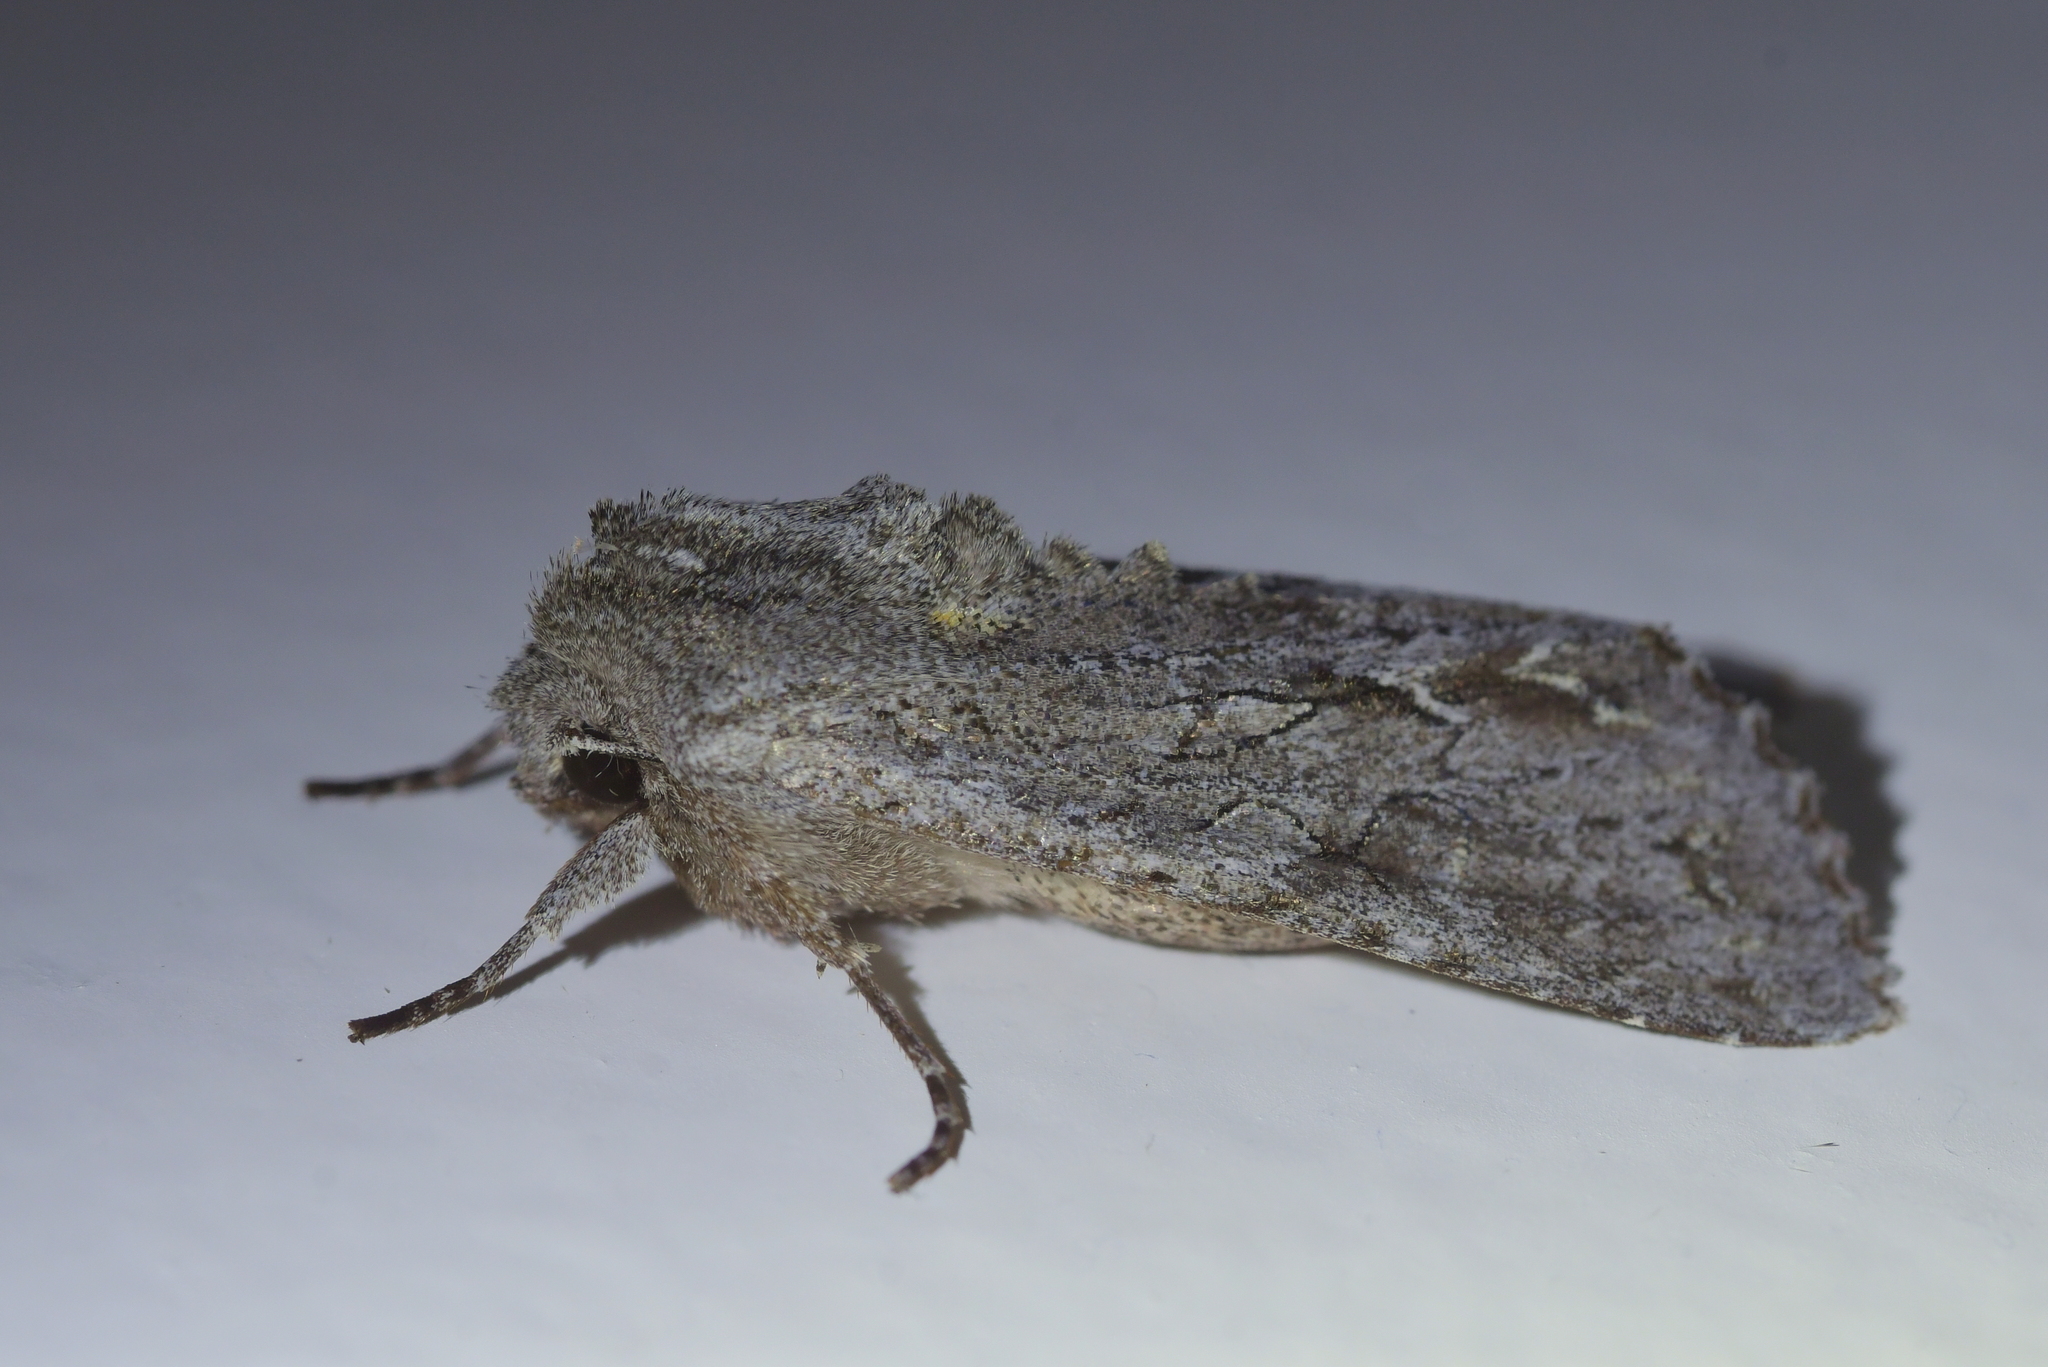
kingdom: Animalia
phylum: Arthropoda
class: Insecta
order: Lepidoptera
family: Noctuidae
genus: Ichneutica
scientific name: Ichneutica
